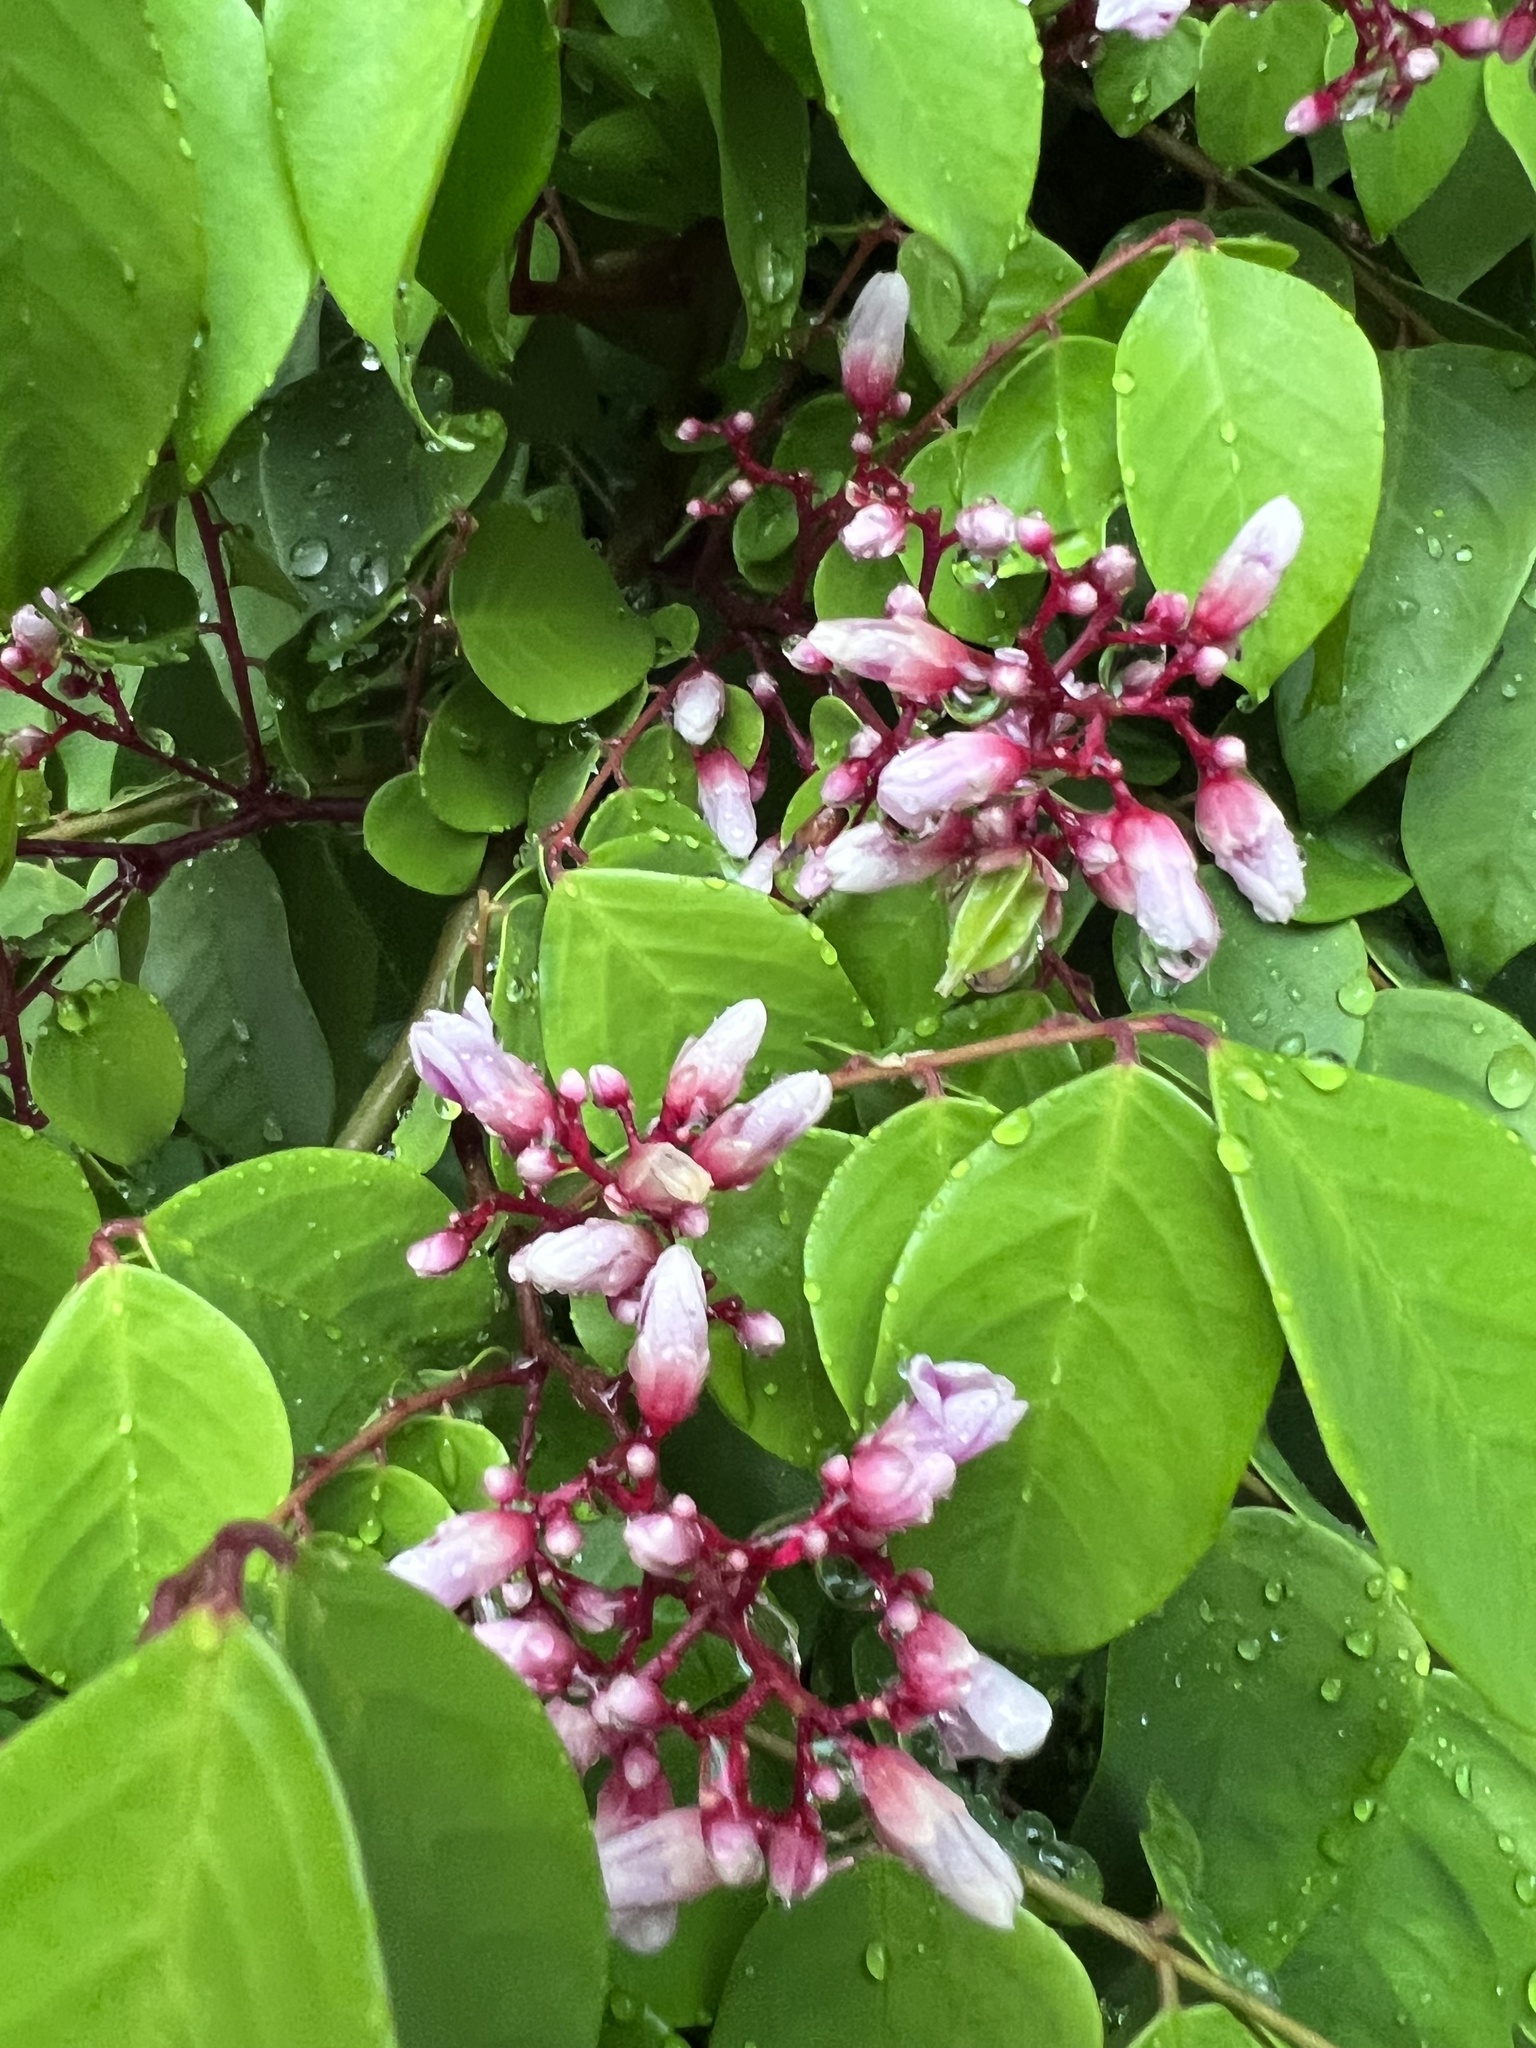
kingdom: Plantae
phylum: Tracheophyta
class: Magnoliopsida
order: Oxalidales
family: Oxalidaceae
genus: Averrhoa
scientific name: Averrhoa carambola
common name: Blimbing
